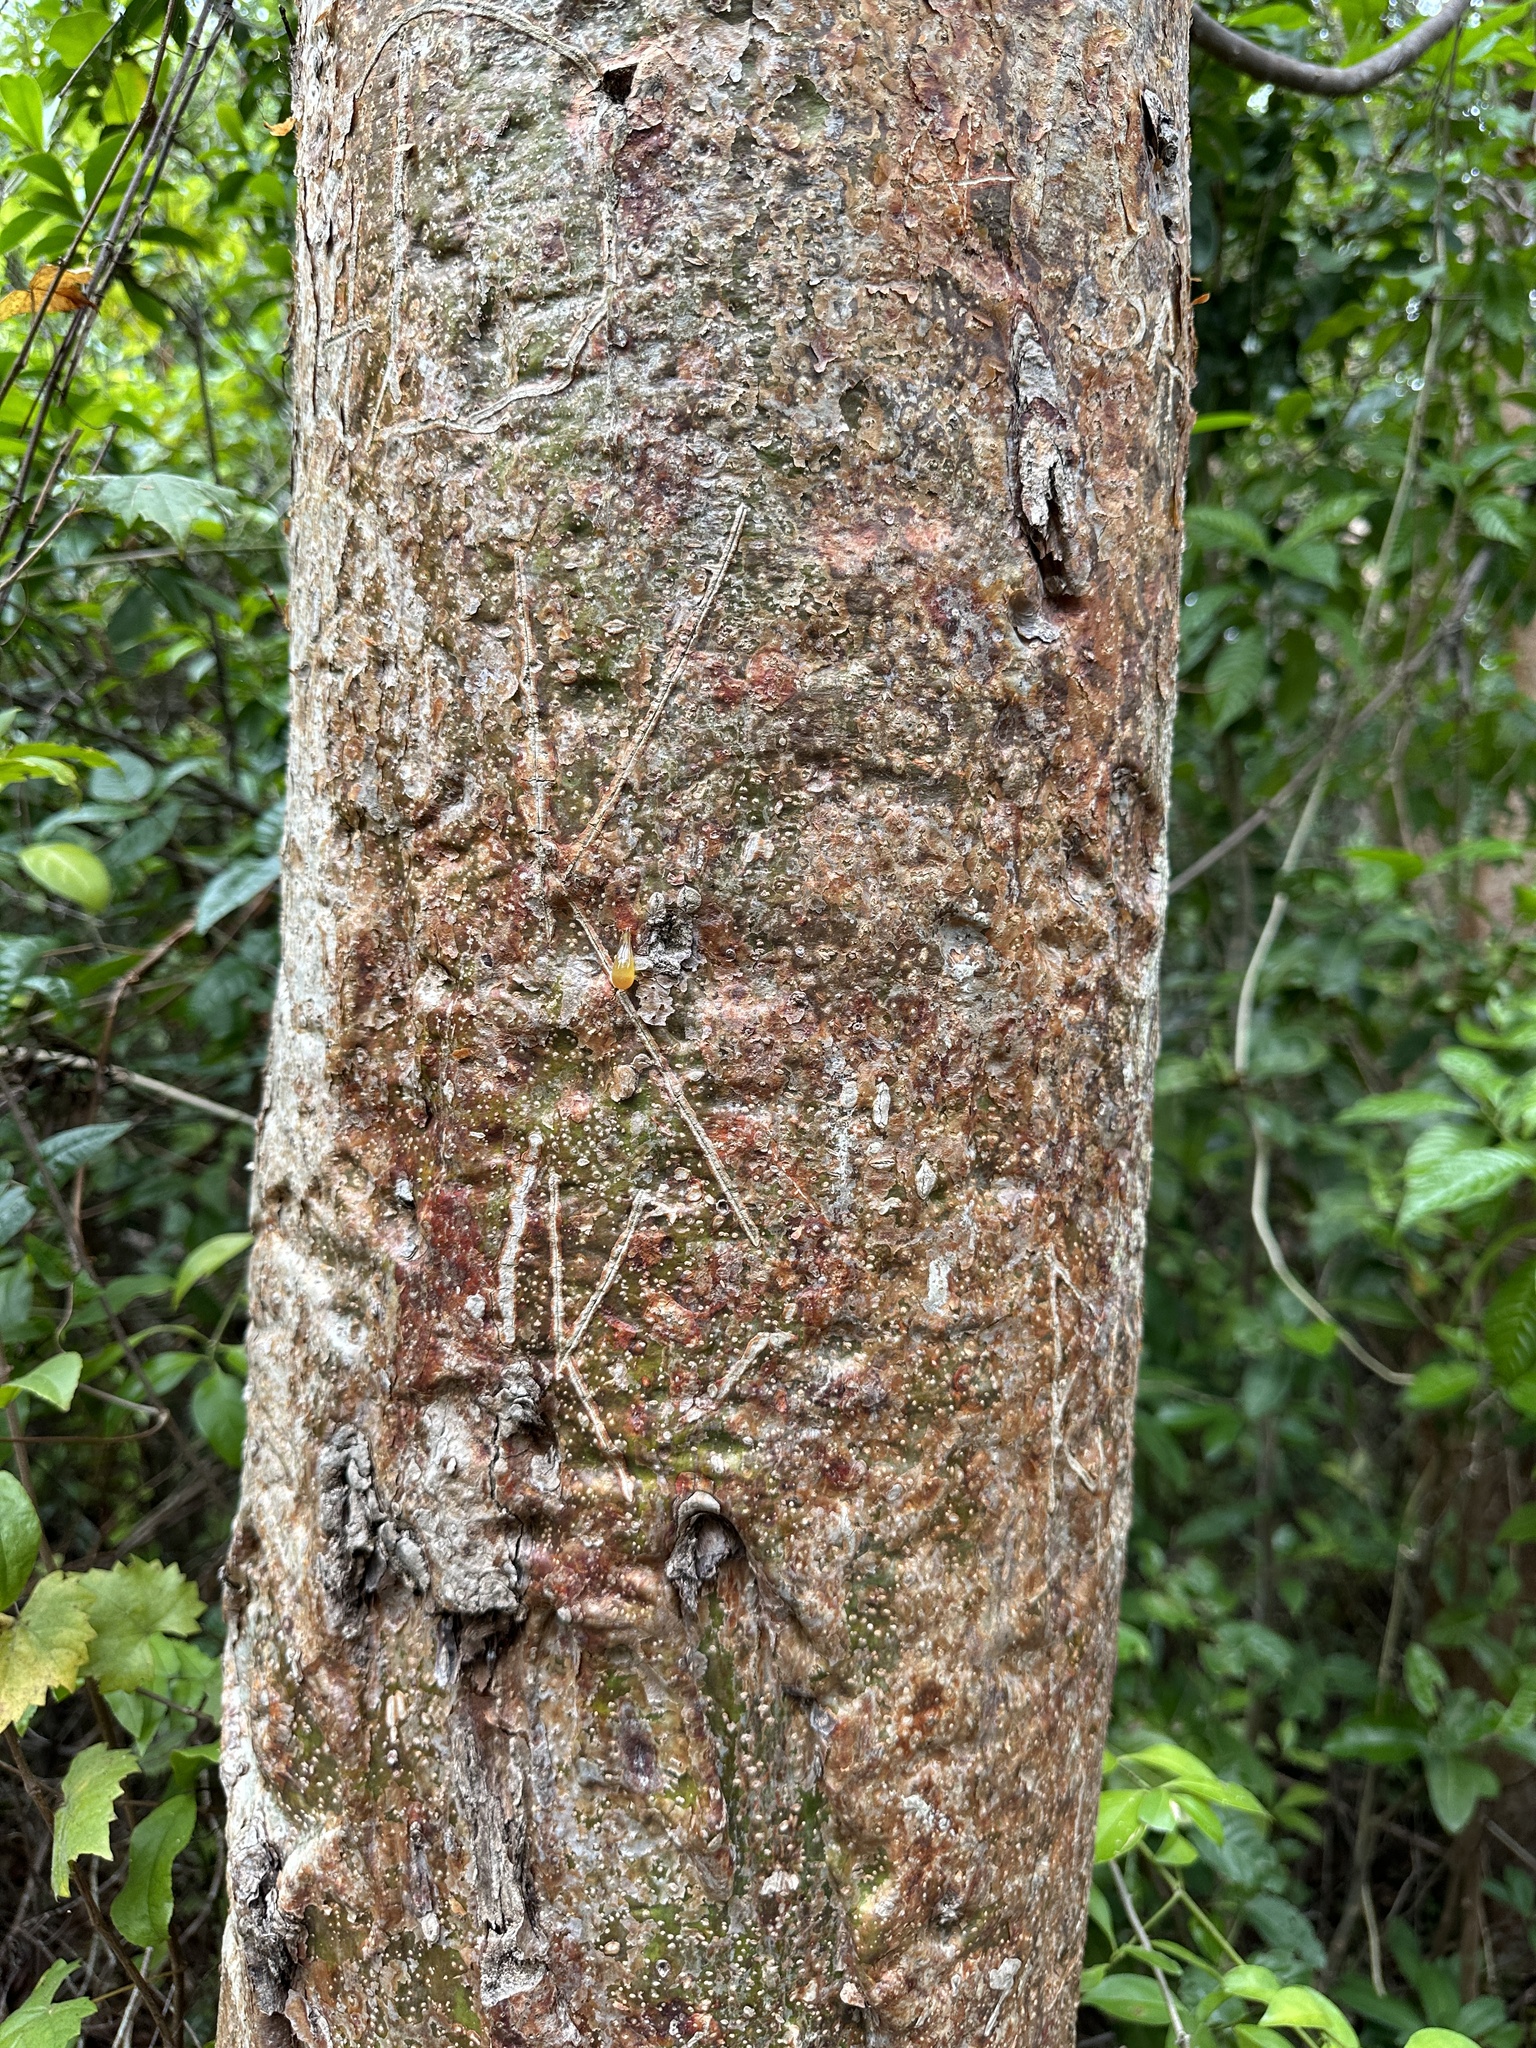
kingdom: Plantae
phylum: Tracheophyta
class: Magnoliopsida
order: Sapindales
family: Burseraceae
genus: Bursera
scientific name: Bursera simaruba
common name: Turpentine tree
